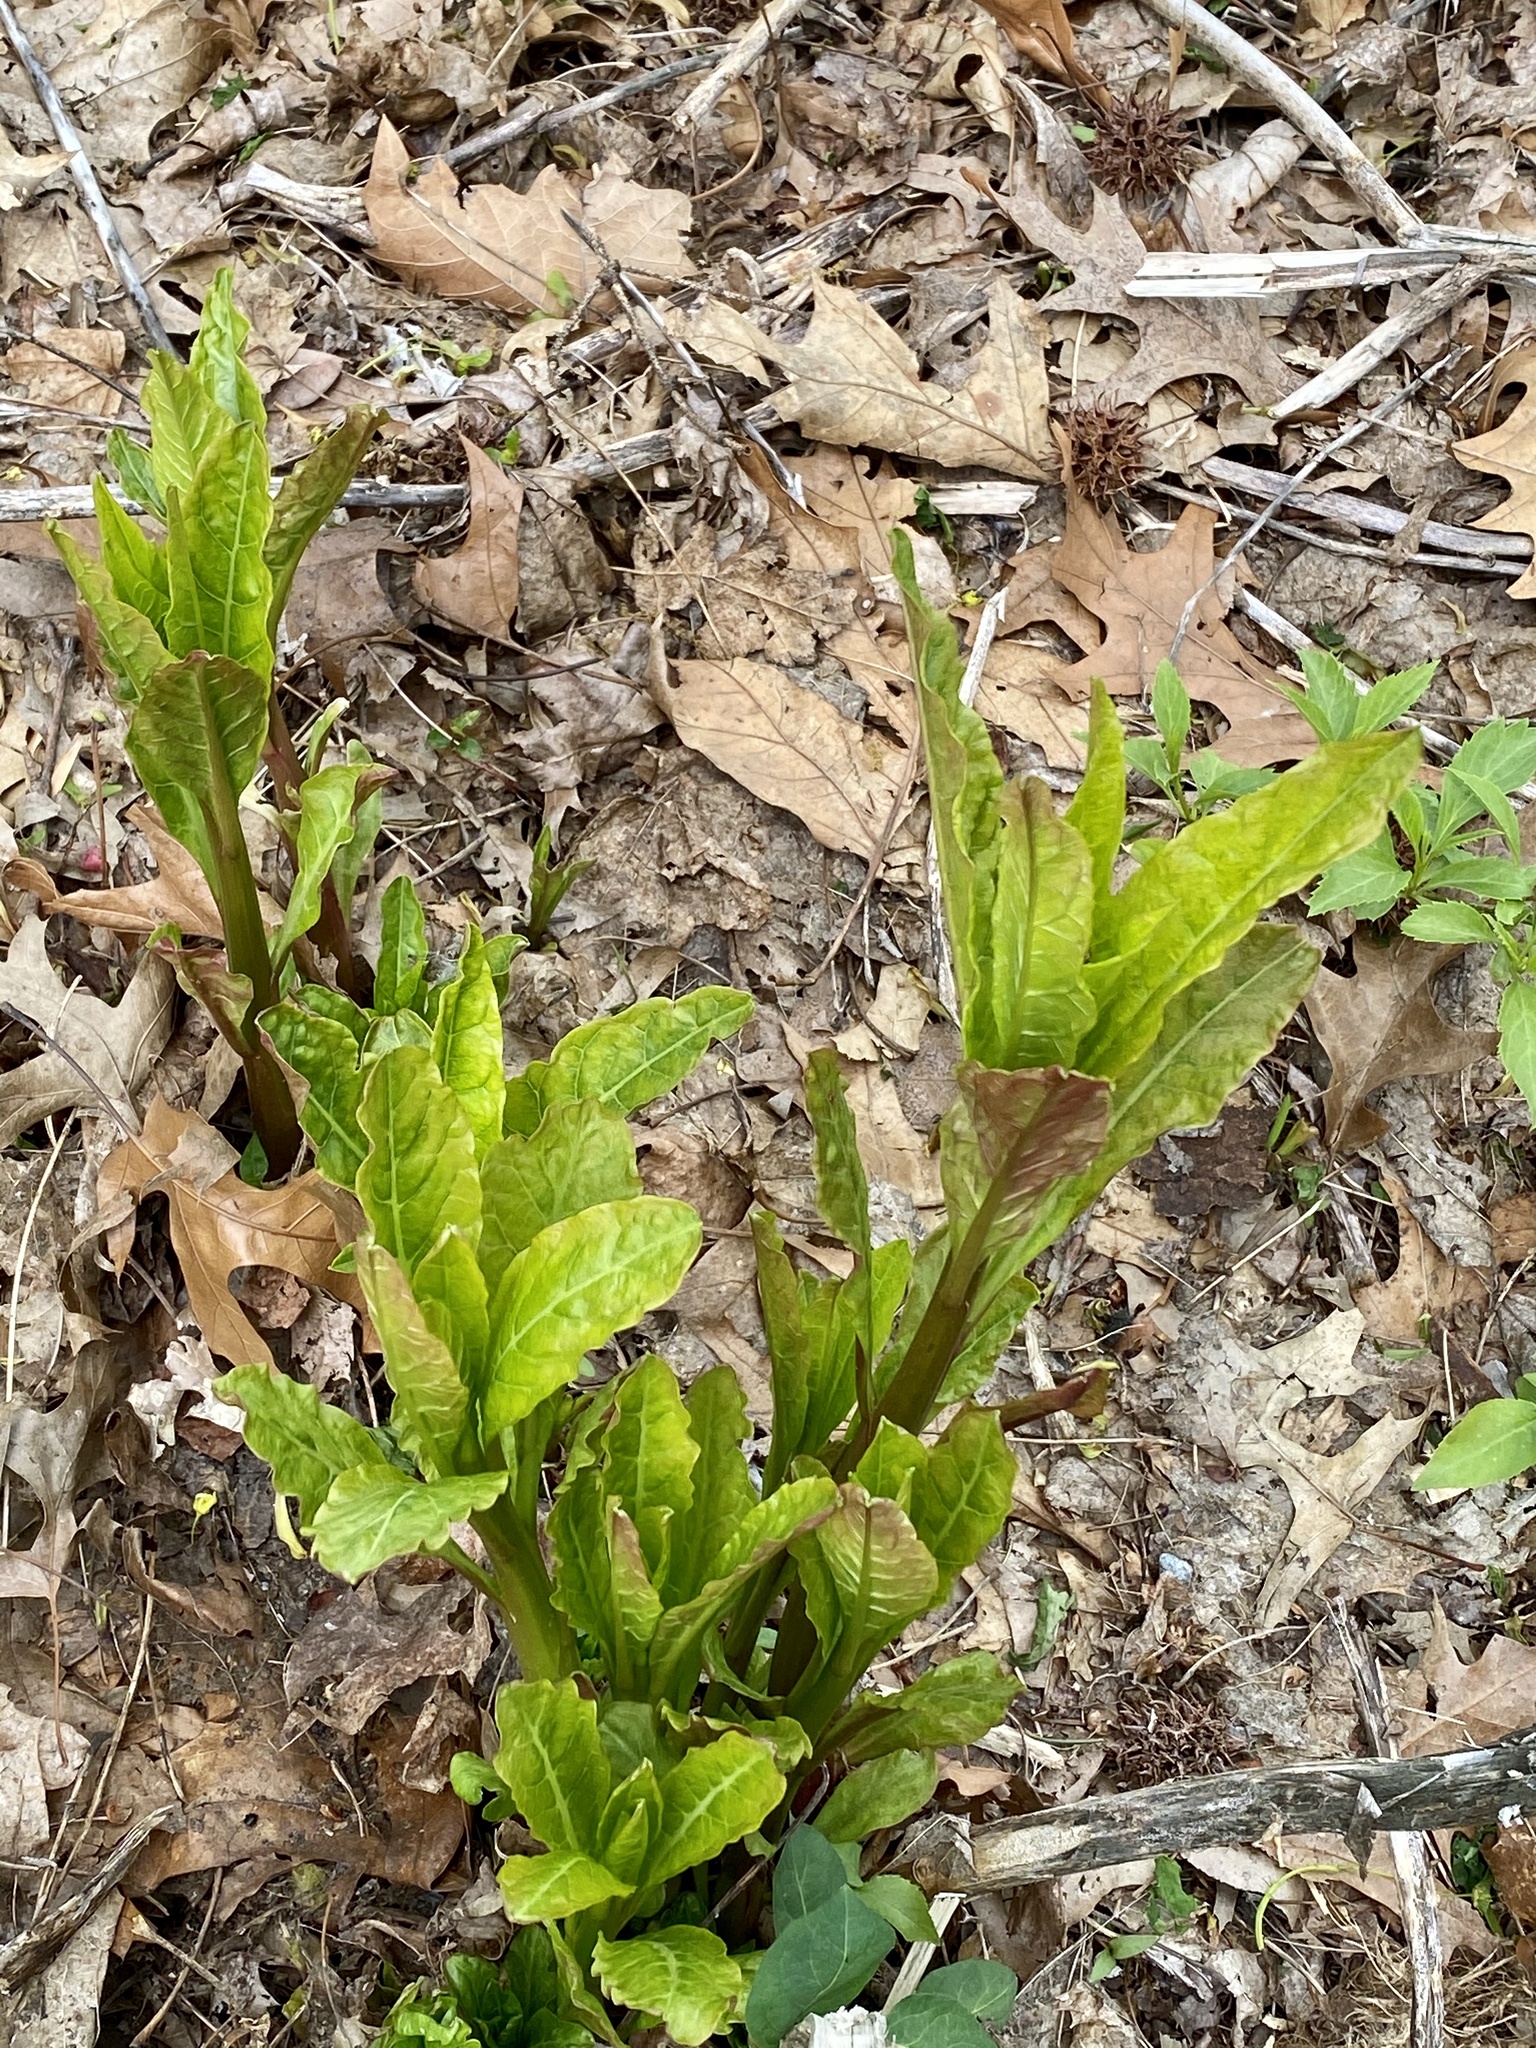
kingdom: Plantae
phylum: Tracheophyta
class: Magnoliopsida
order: Caryophyllales
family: Phytolaccaceae
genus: Phytolacca
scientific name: Phytolacca americana
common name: American pokeweed
